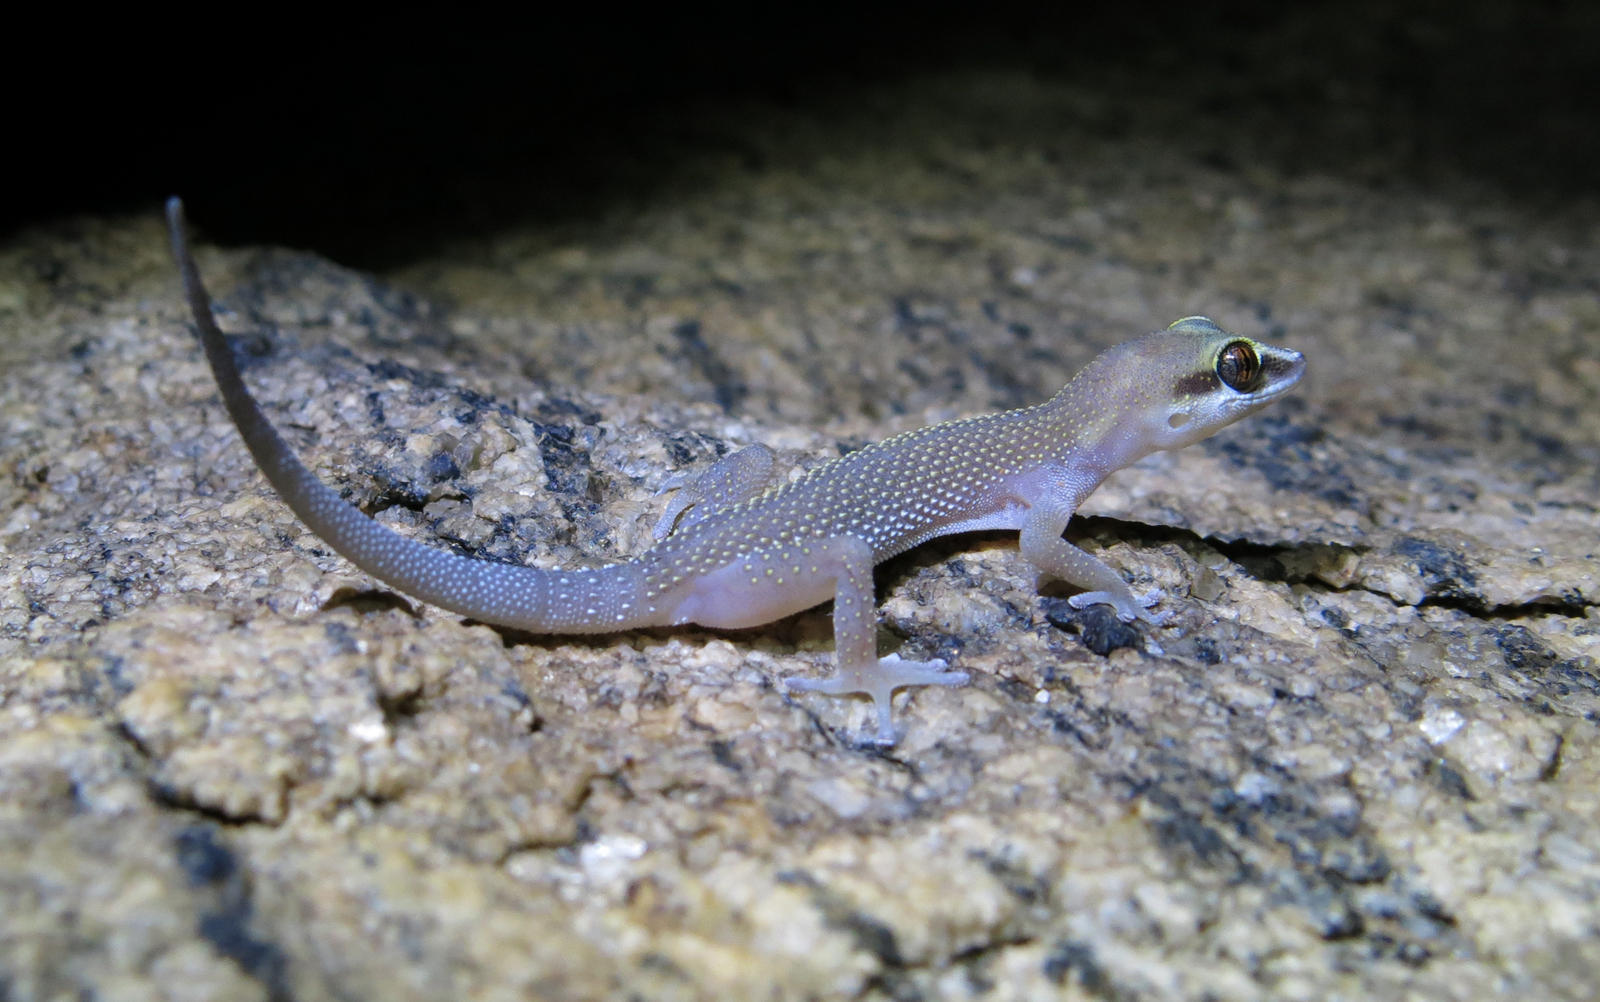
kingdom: Animalia
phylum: Chordata
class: Squamata
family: Gekkonidae
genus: Pachydactylus
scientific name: Pachydactylus atorquatus
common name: Augrabies gecko
